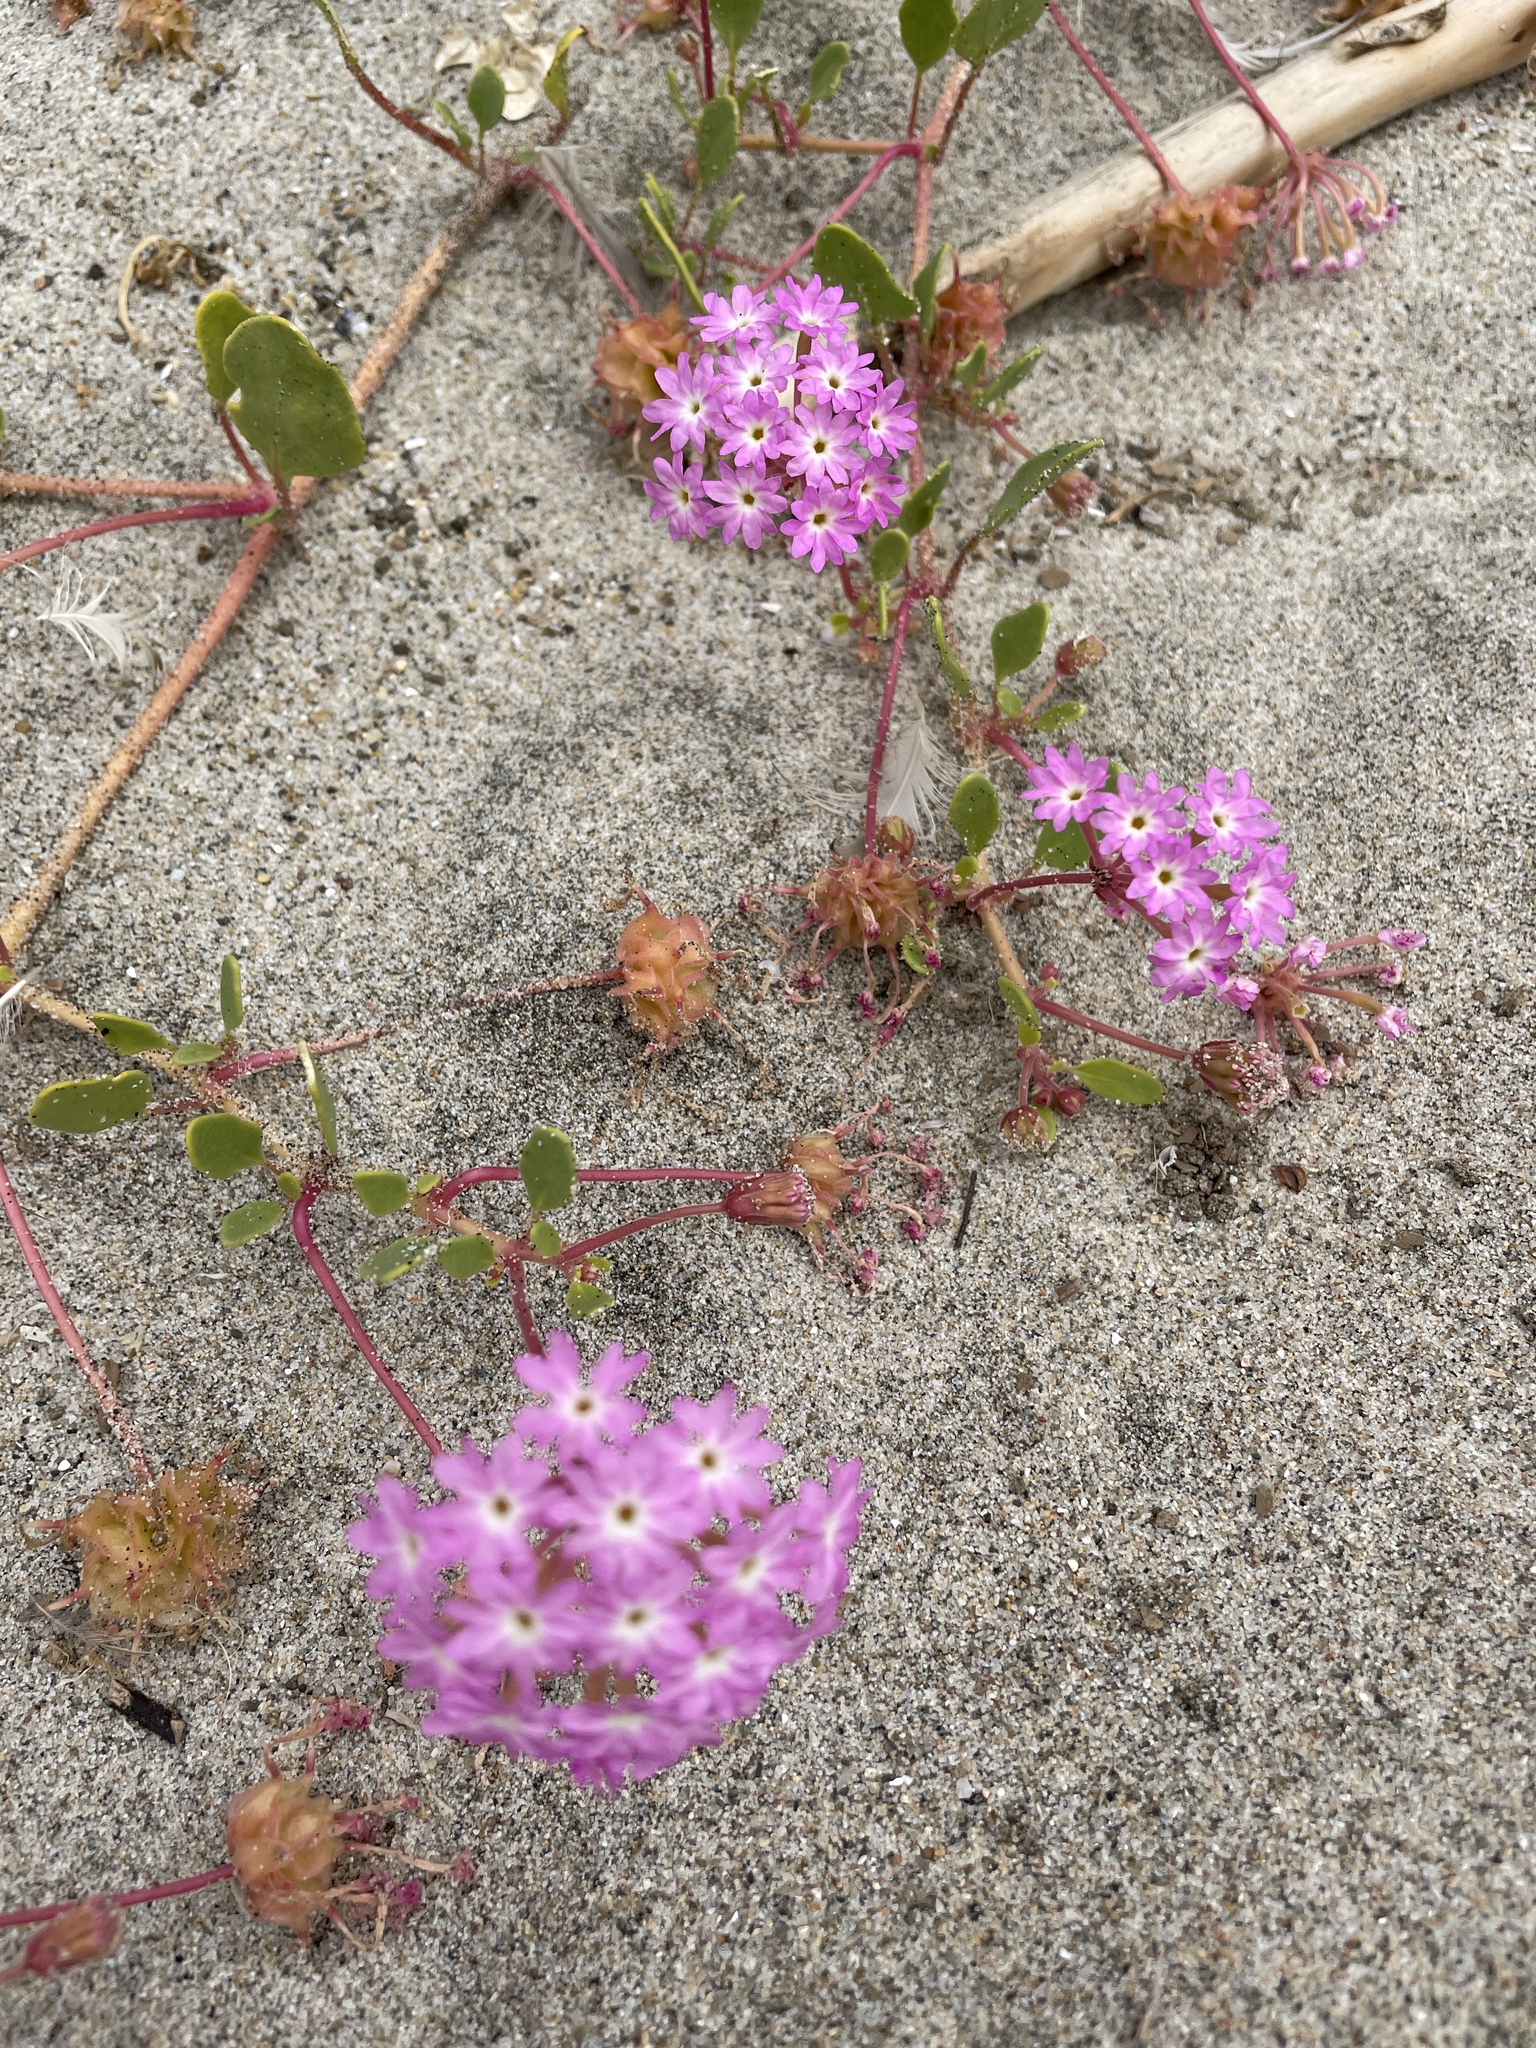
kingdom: Plantae
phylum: Tracheophyta
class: Magnoliopsida
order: Caryophyllales
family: Nyctaginaceae
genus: Abronia
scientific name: Abronia umbellata
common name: Sand-verbena
